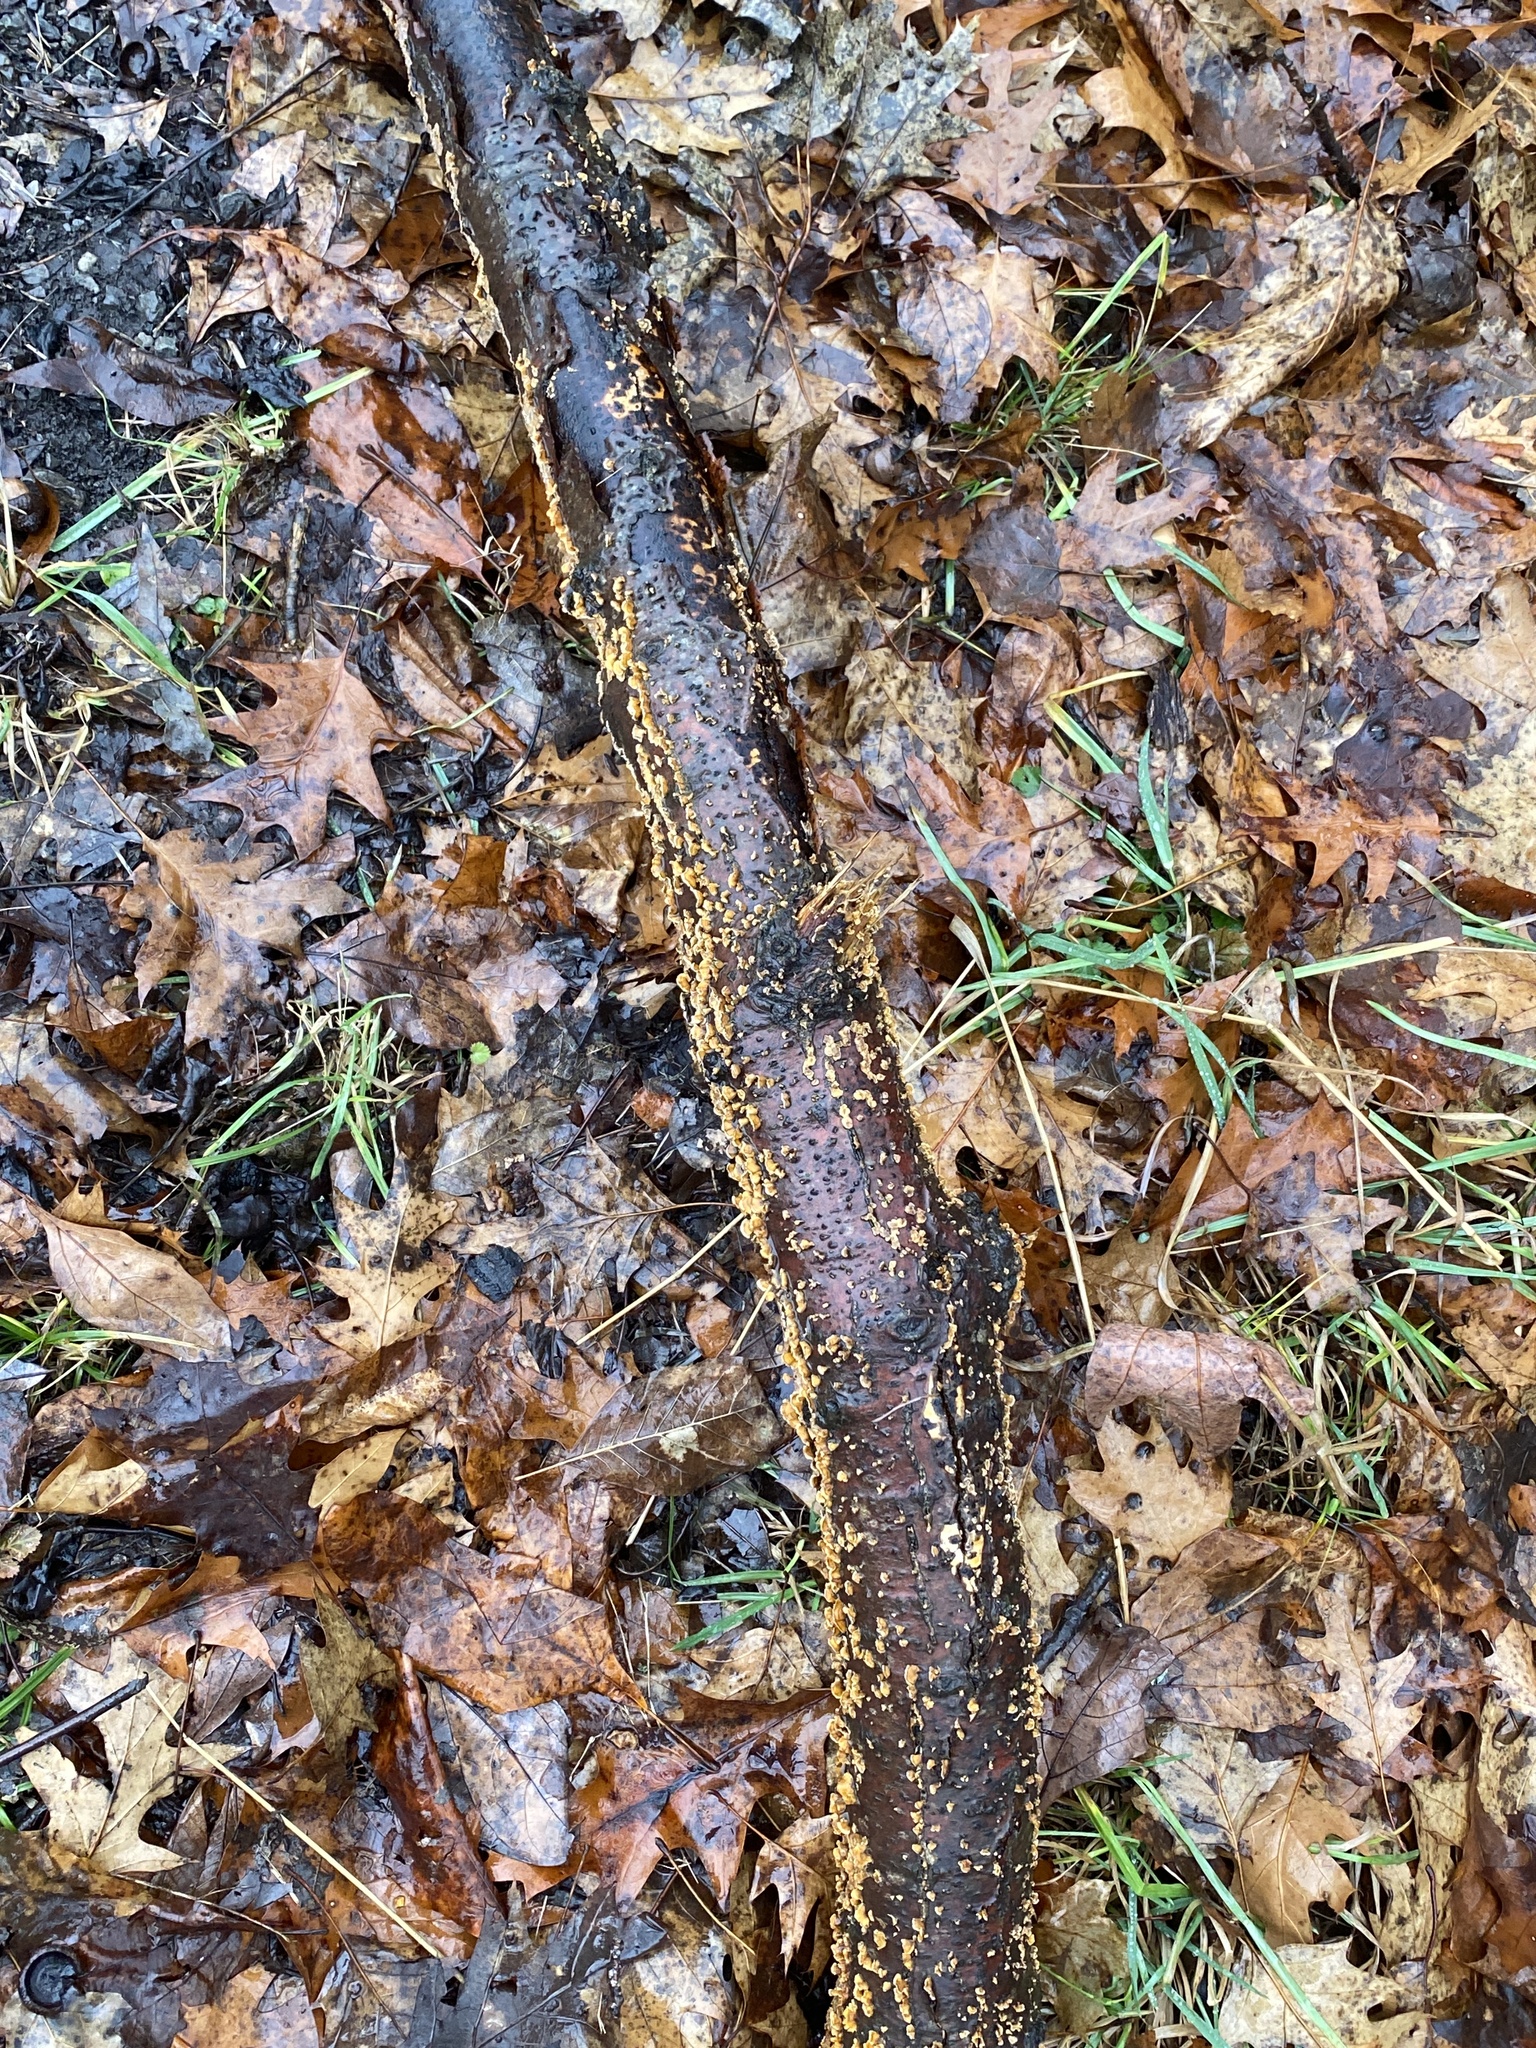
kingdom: Fungi
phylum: Basidiomycota
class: Agaricomycetes
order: Russulales
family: Stereaceae
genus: Stereum
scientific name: Stereum complicatum
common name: Crowded parchment
